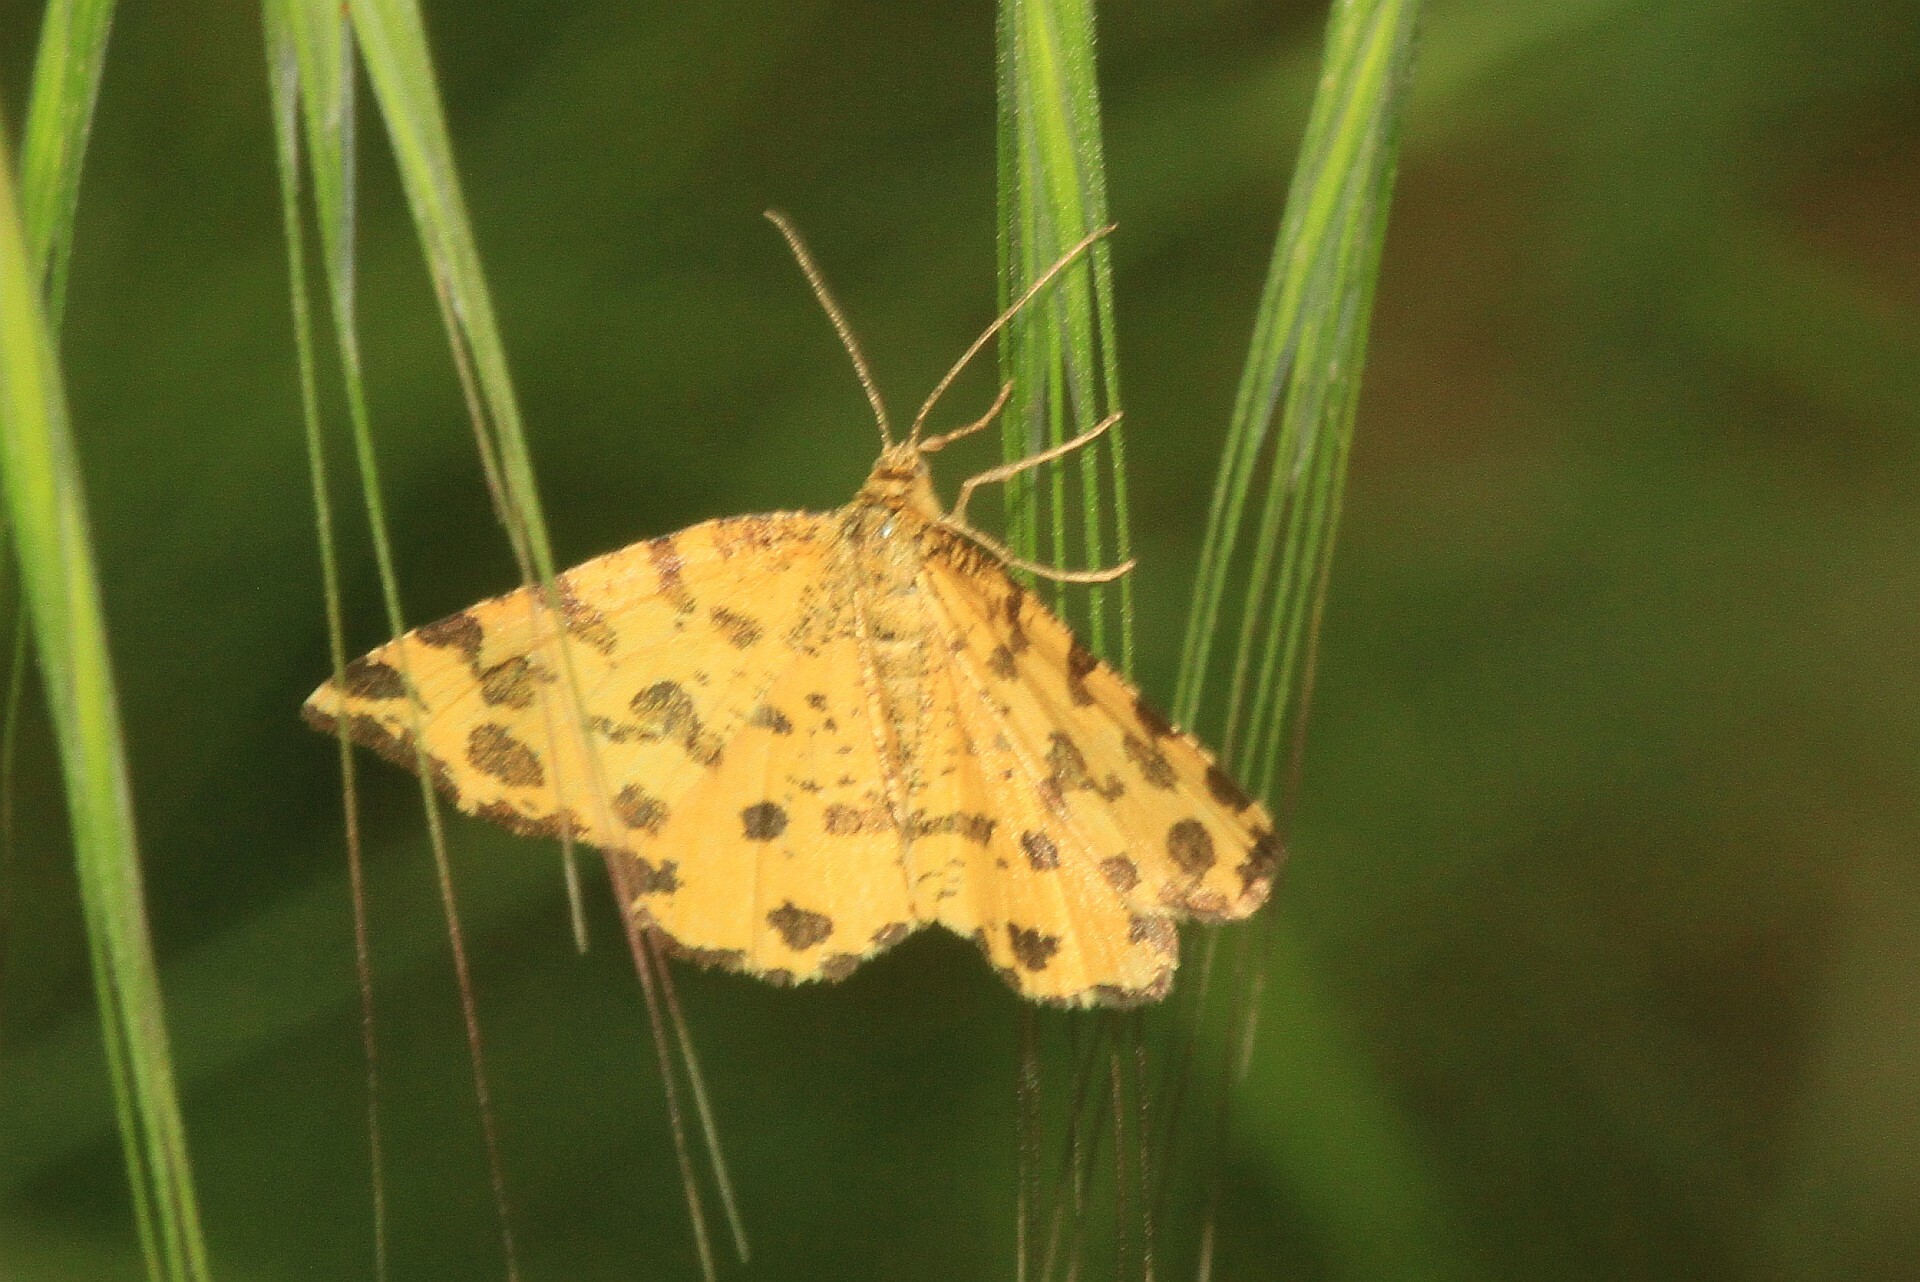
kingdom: Animalia
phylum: Arthropoda
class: Insecta
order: Lepidoptera
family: Geometridae
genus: Pseudopanthera
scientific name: Pseudopanthera macularia
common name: Speckled yellow
